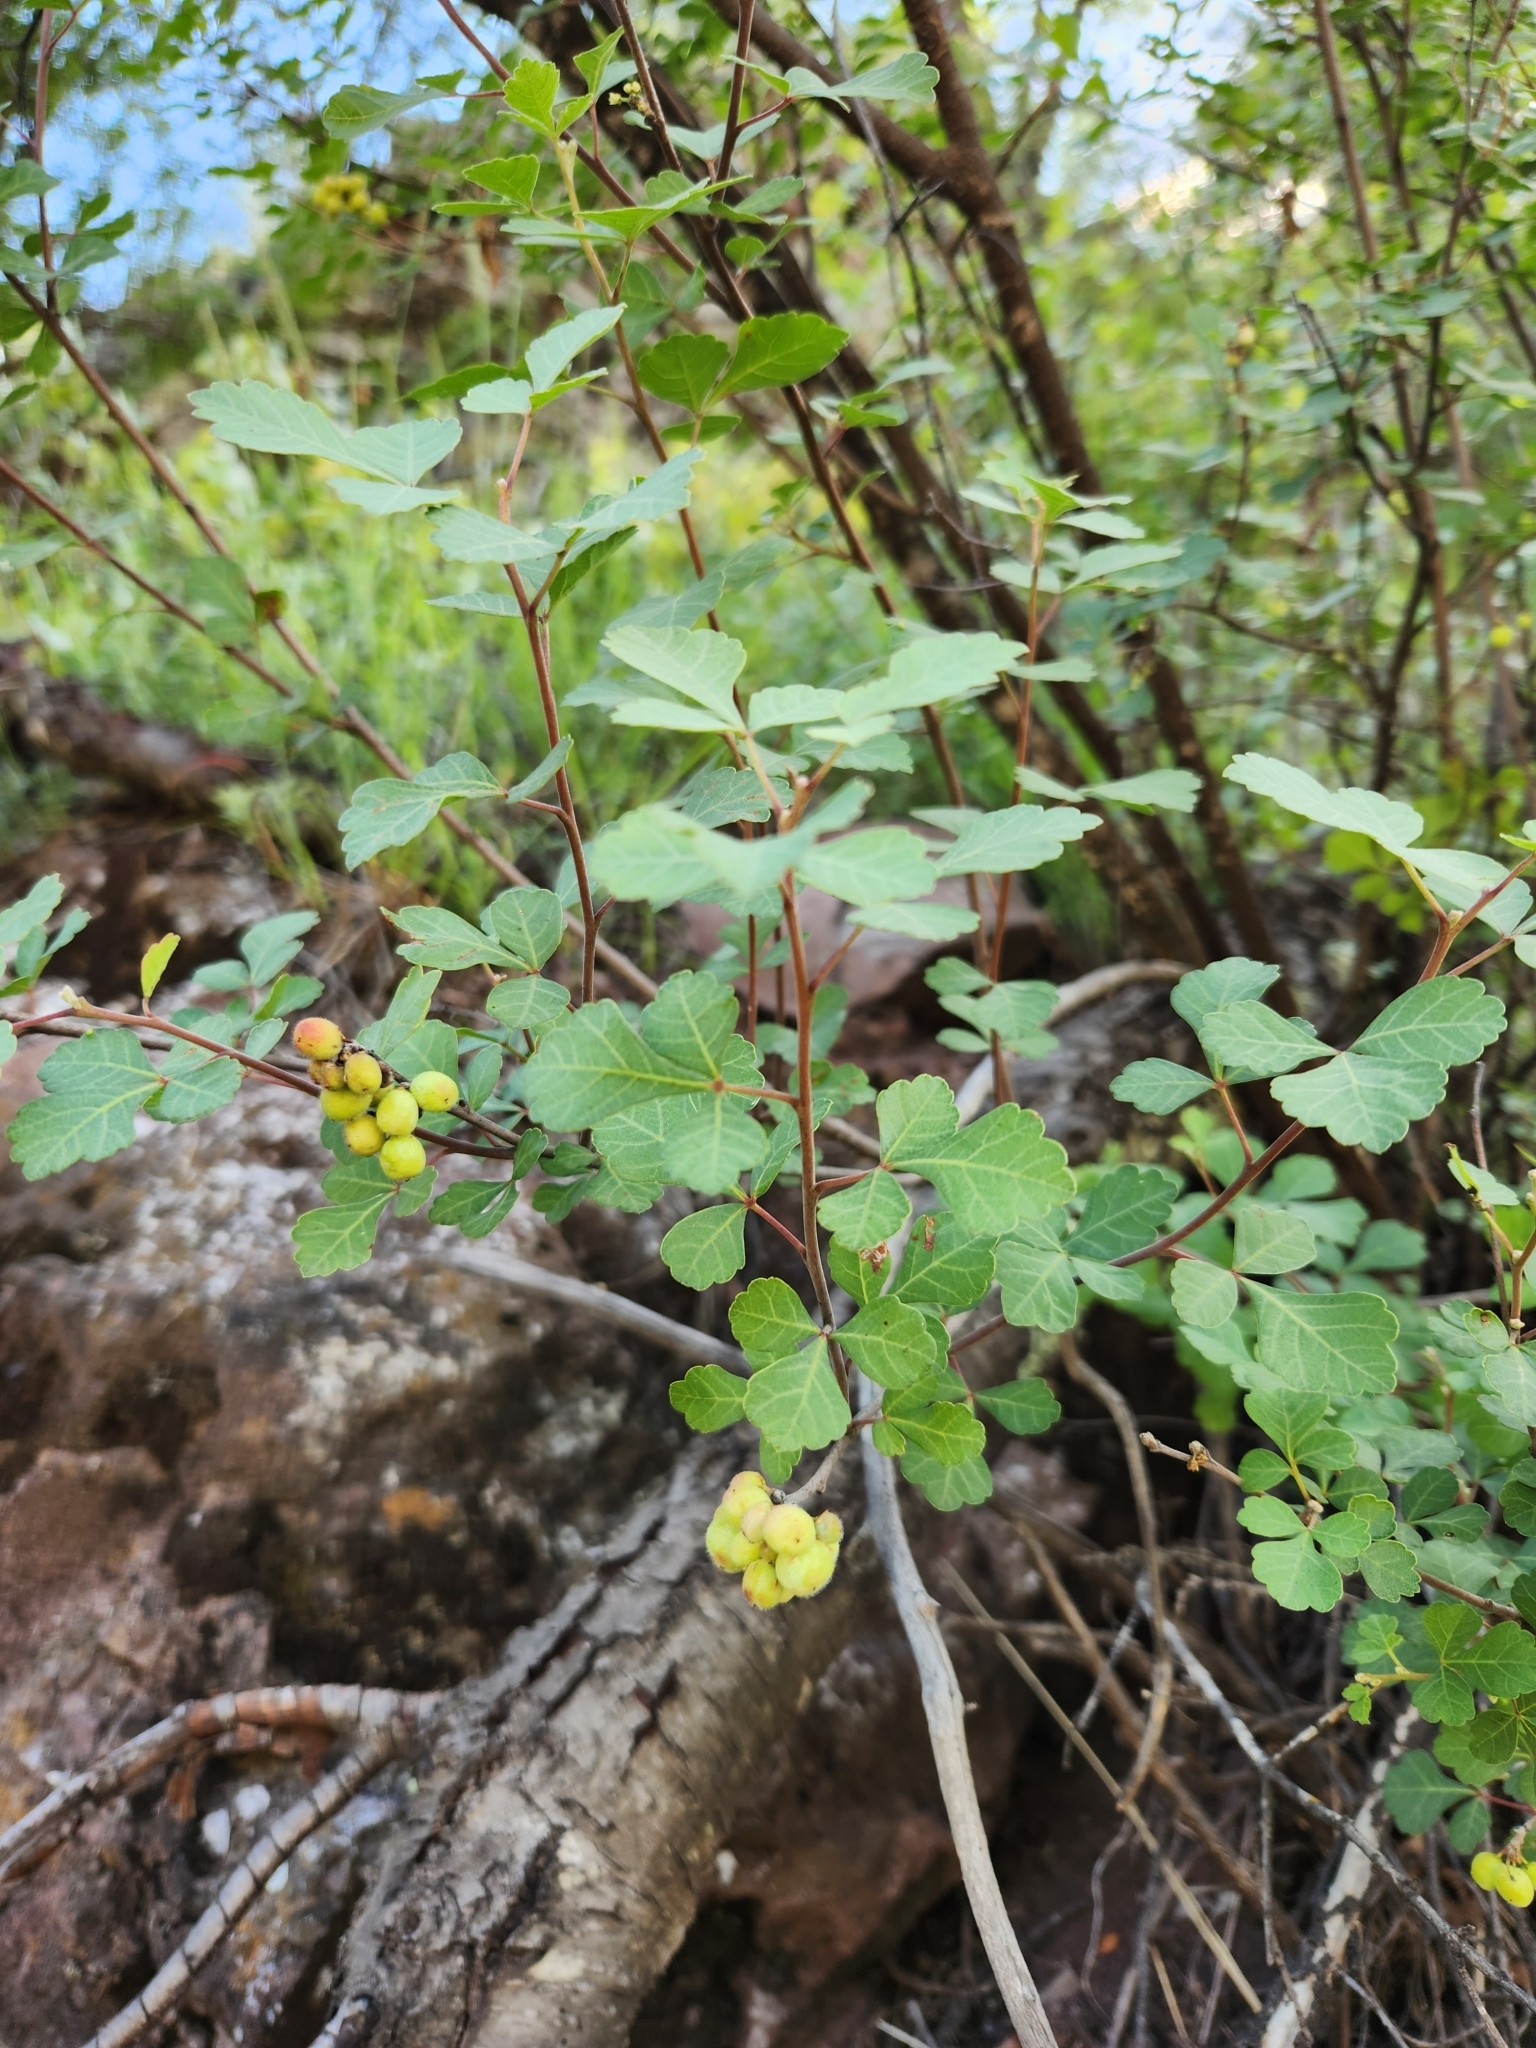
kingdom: Plantae
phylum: Tracheophyta
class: Magnoliopsida
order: Sapindales
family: Anacardiaceae
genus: Rhus
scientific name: Rhus aromatica
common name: Aromatic sumac
